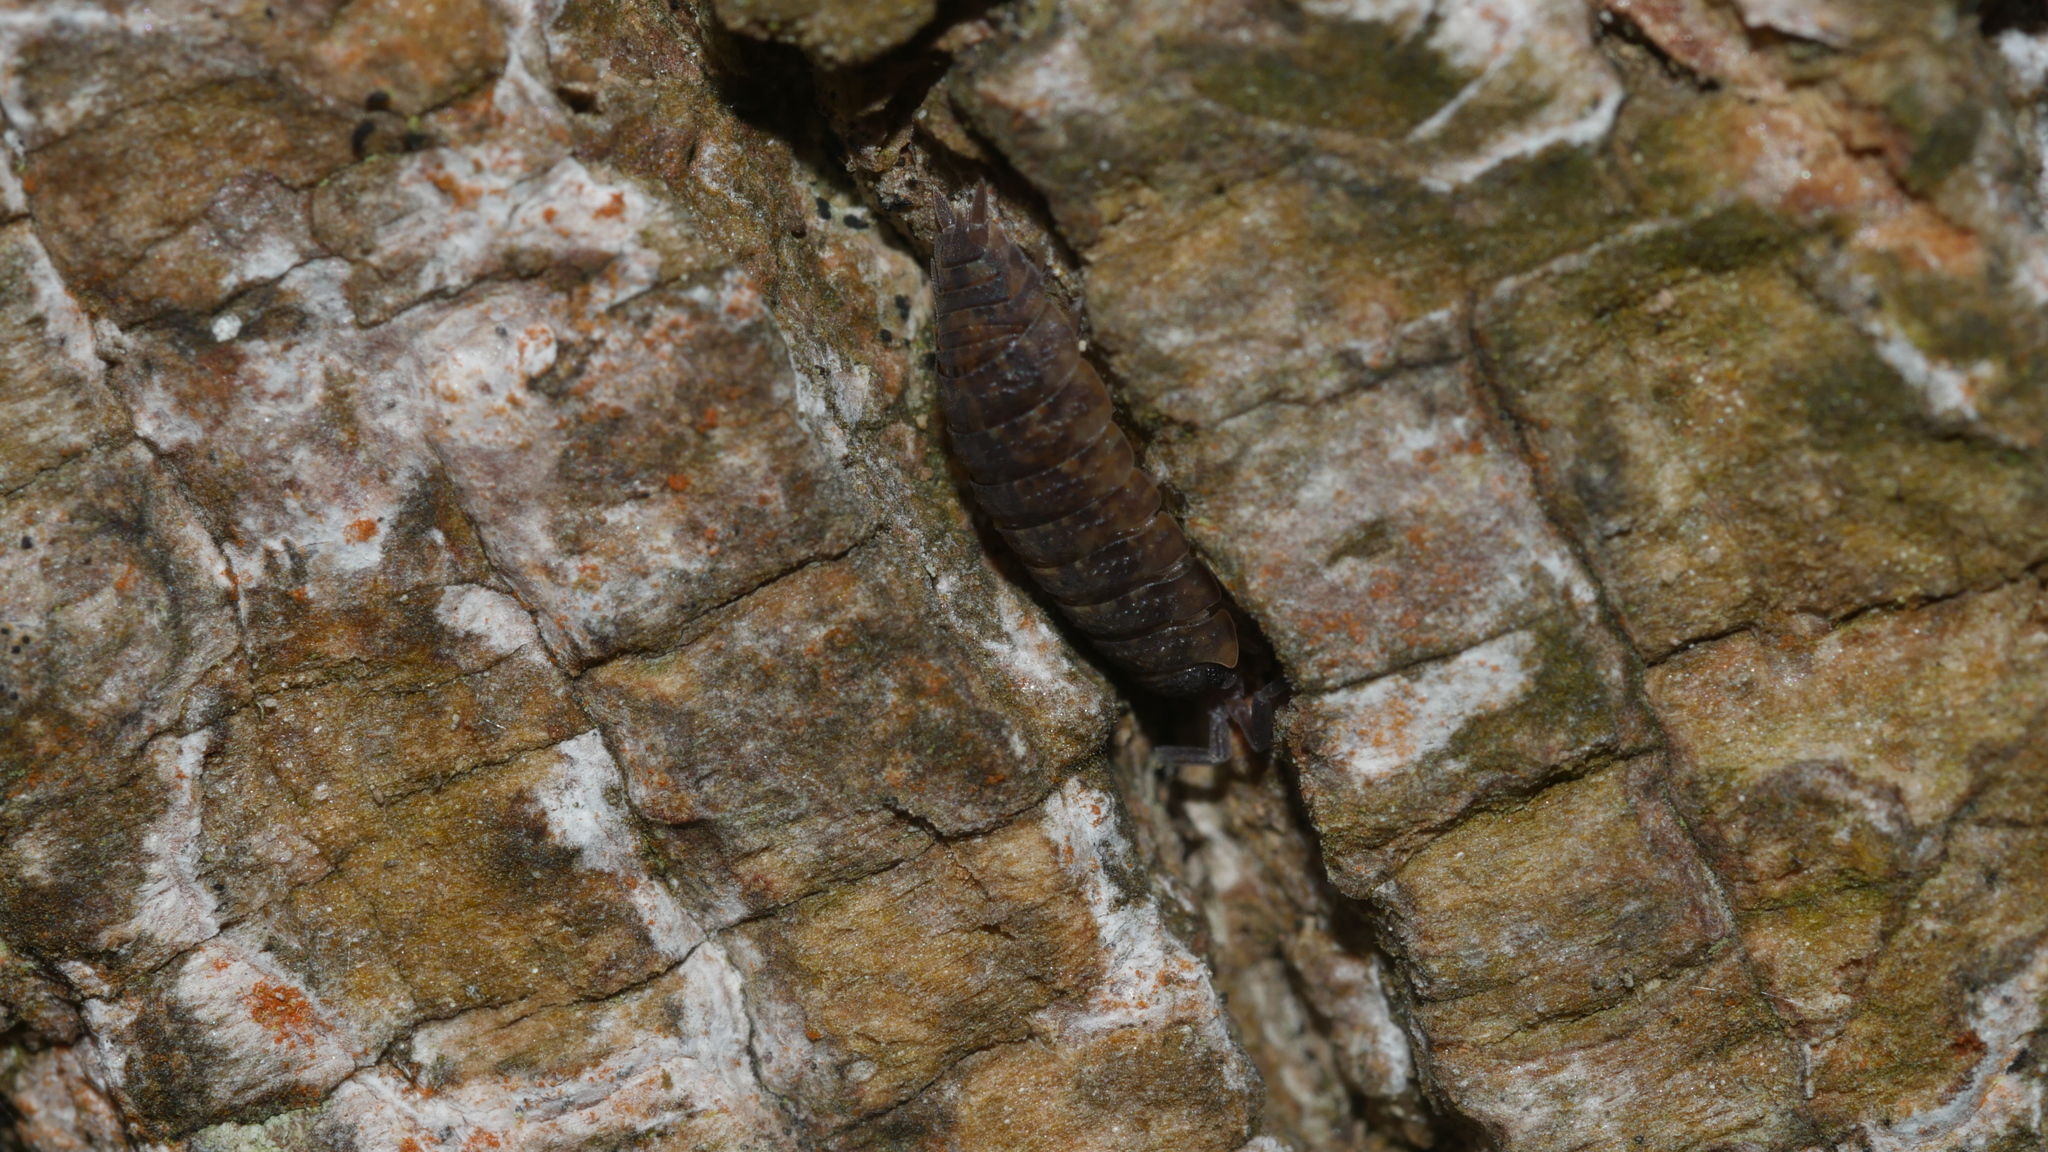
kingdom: Animalia
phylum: Arthropoda
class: Malacostraca
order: Isopoda
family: Porcellionidae
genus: Porcellio
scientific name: Porcellio scaber
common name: Common rough woodlouse
